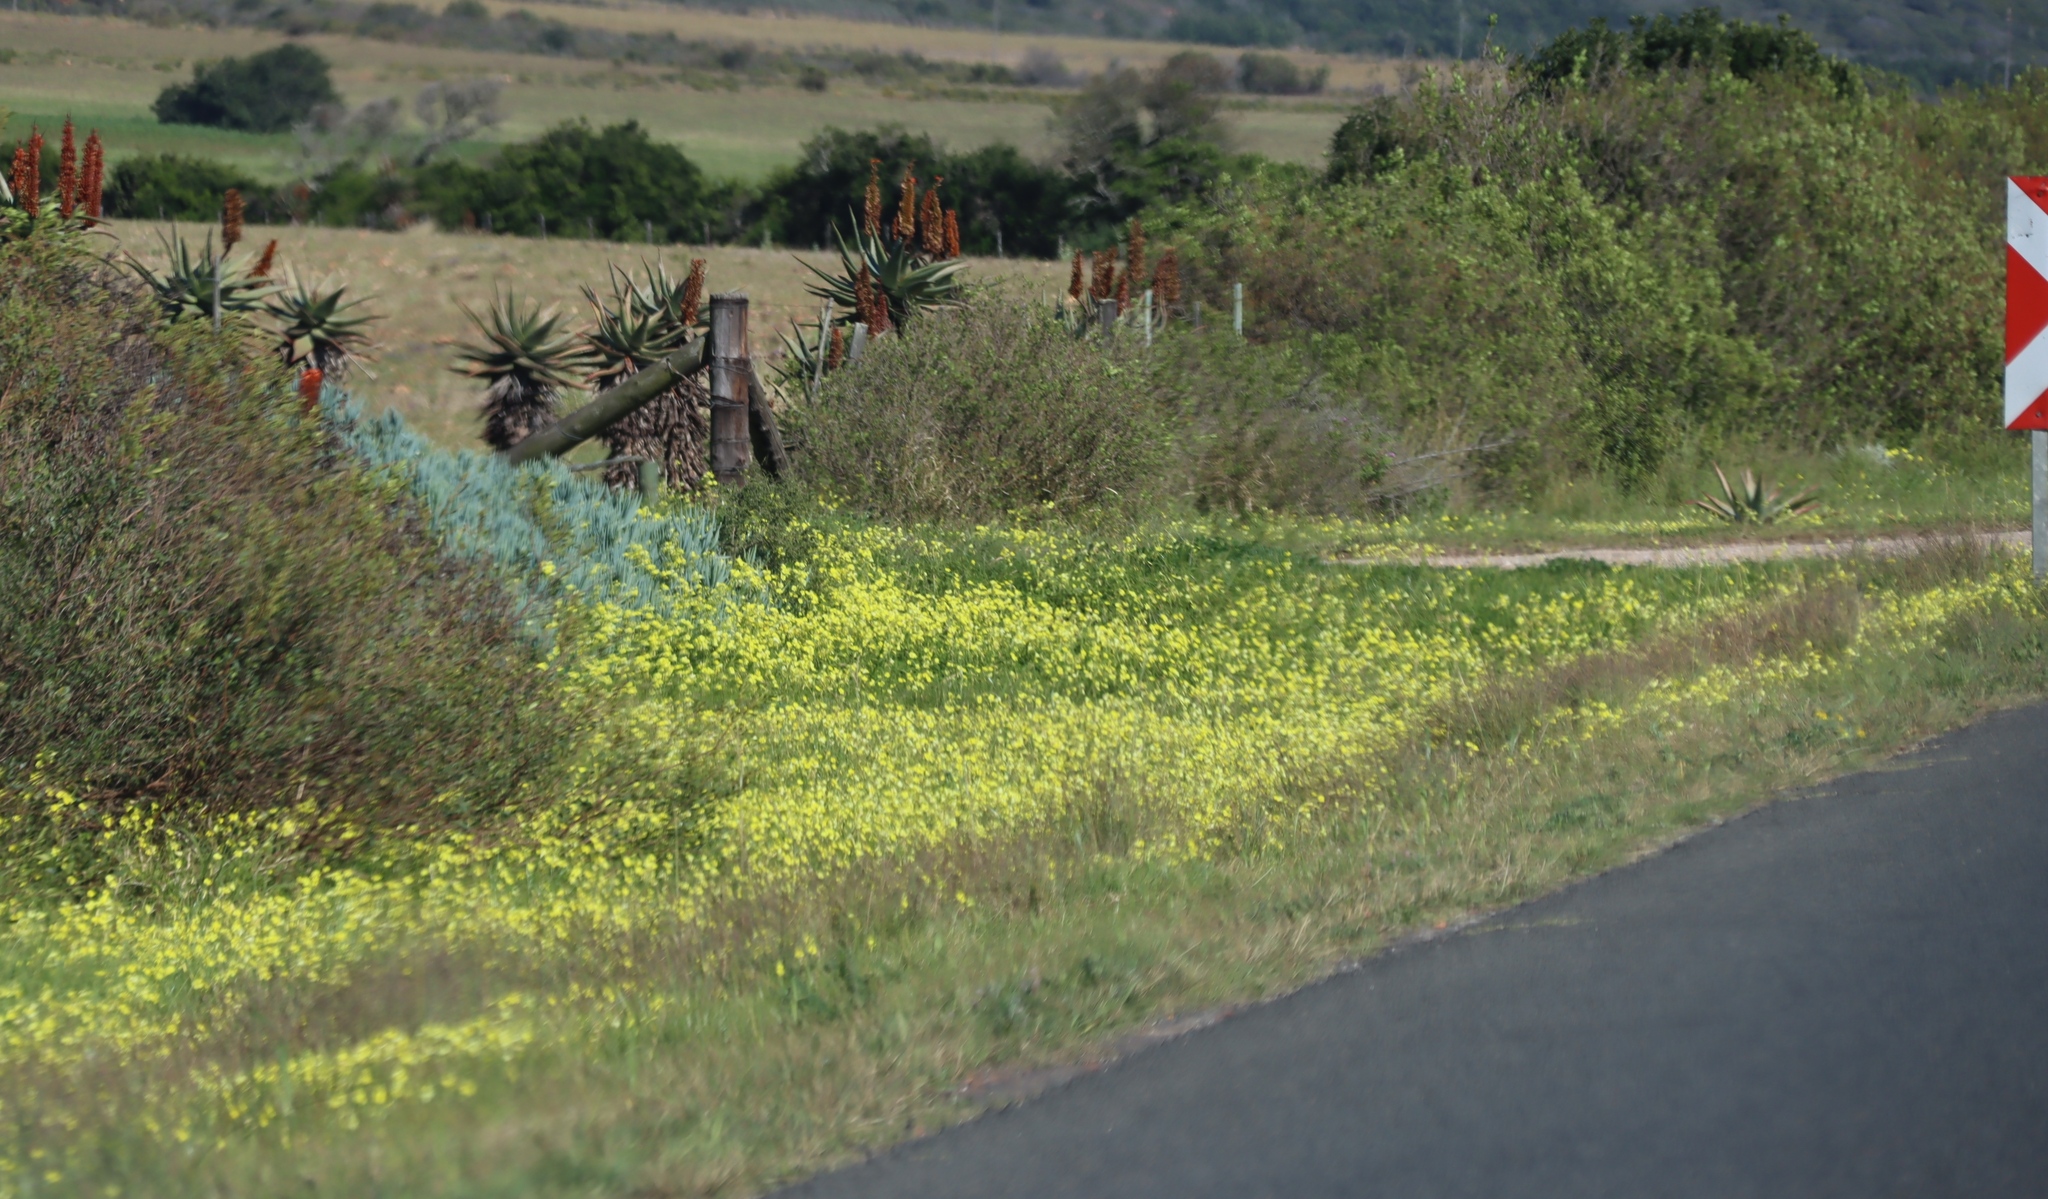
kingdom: Plantae
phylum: Tracheophyta
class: Liliopsida
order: Asparagales
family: Asphodelaceae
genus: Aloe
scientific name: Aloe ferox
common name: Bitter aloe
